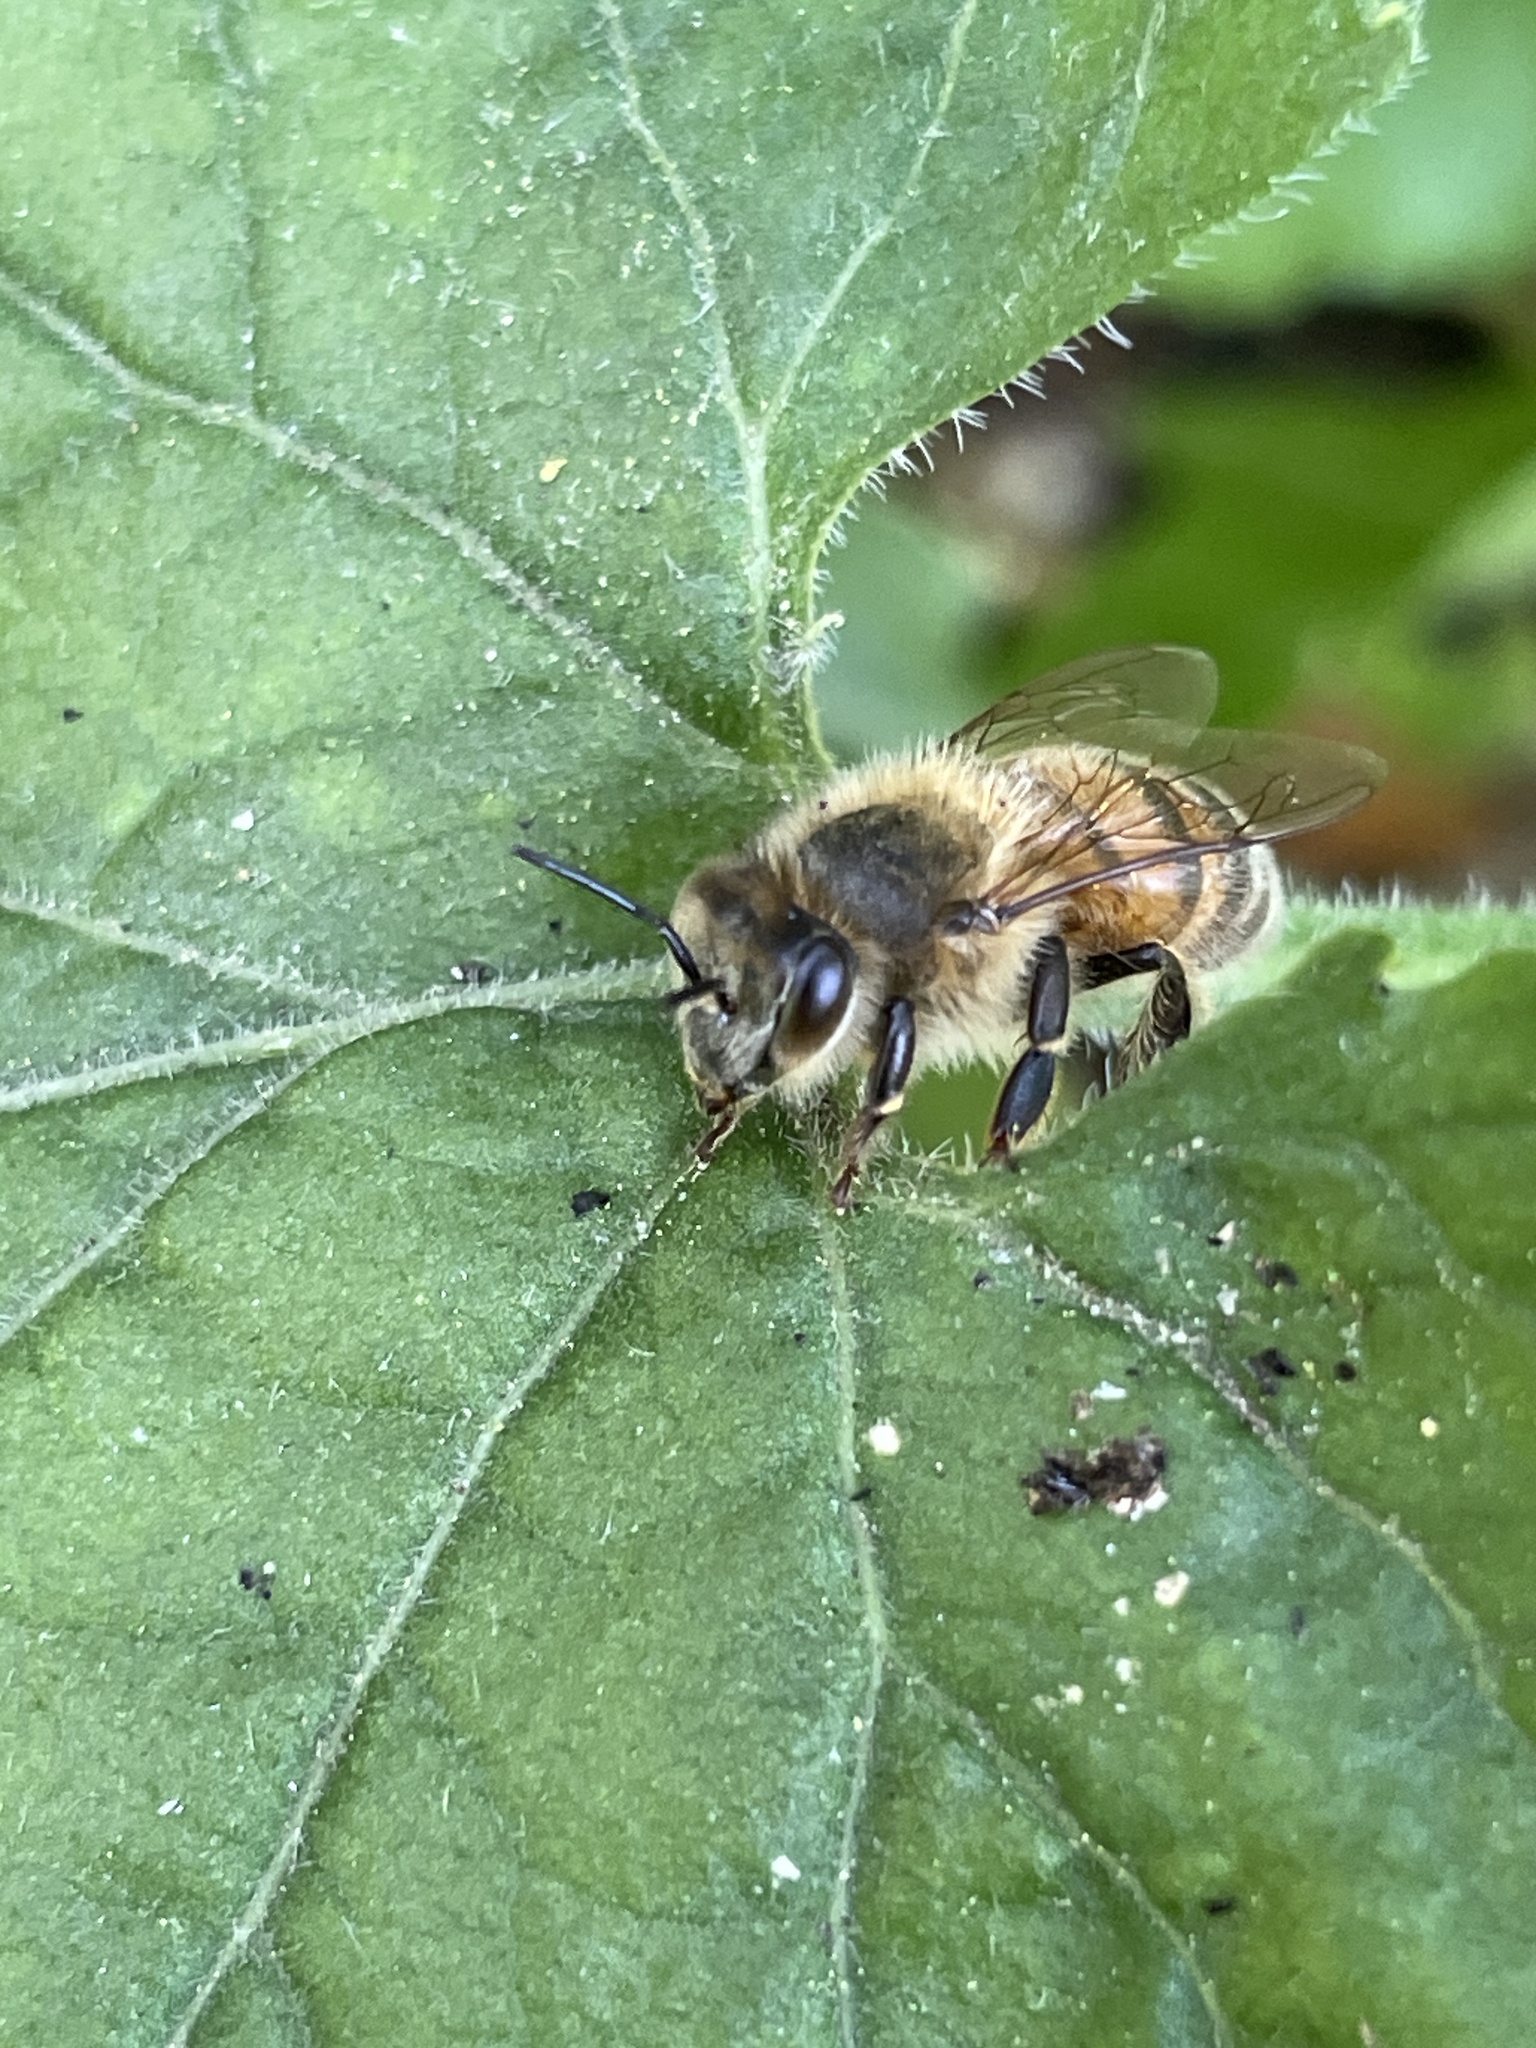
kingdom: Animalia
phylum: Arthropoda
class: Insecta
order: Hymenoptera
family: Apidae
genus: Apis
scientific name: Apis mellifera
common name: Honey bee
